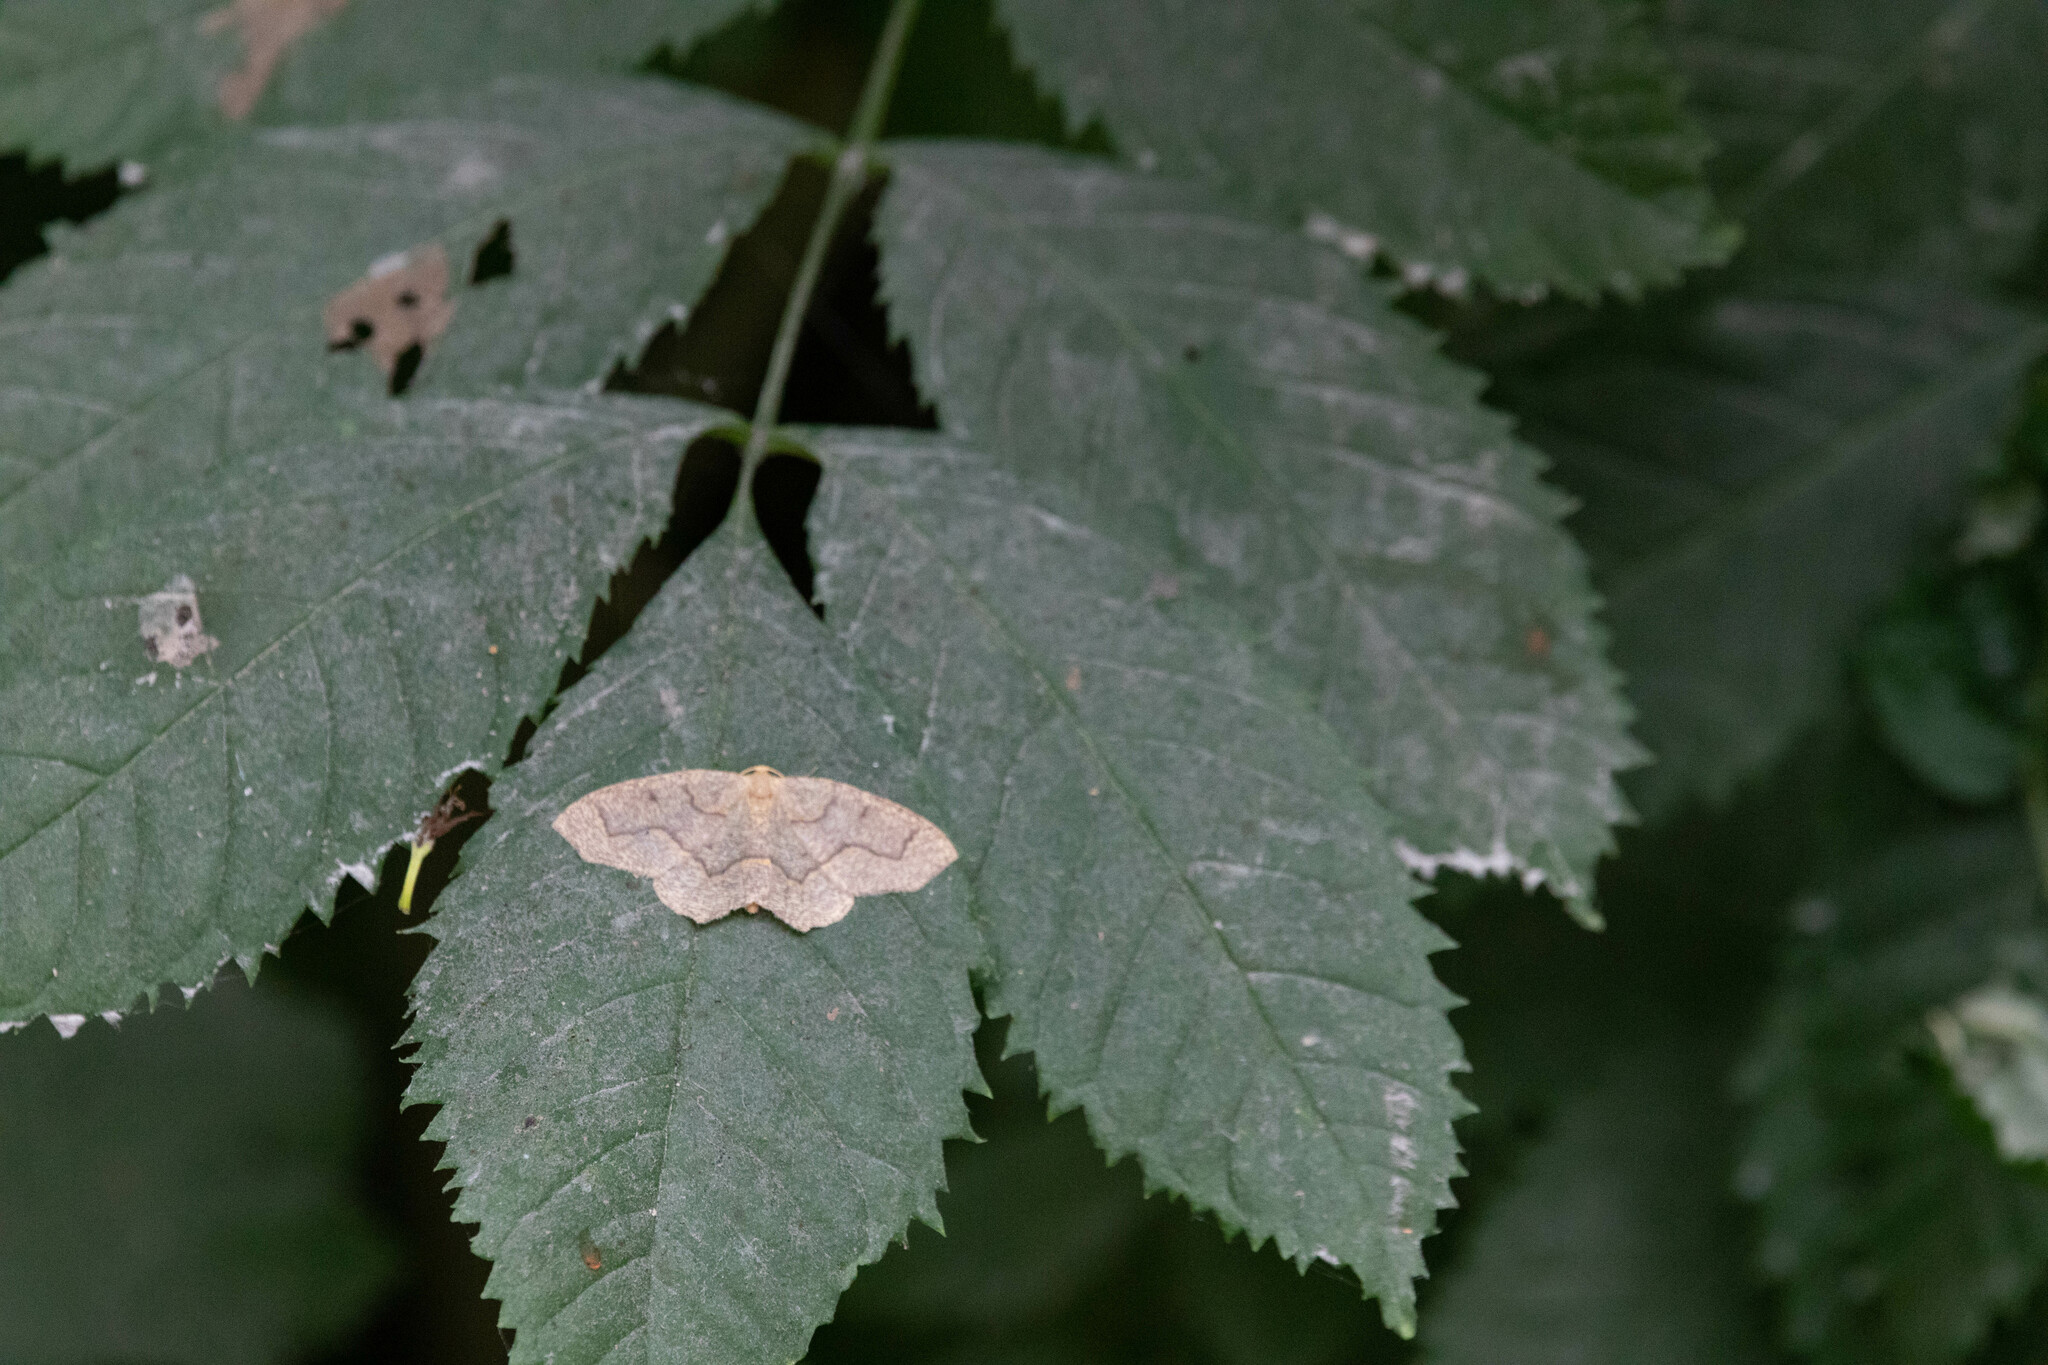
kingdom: Animalia
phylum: Arthropoda
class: Insecta
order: Lepidoptera
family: Geometridae
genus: Lambdina
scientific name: Lambdina fiscellaria
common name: Hemlock looper
